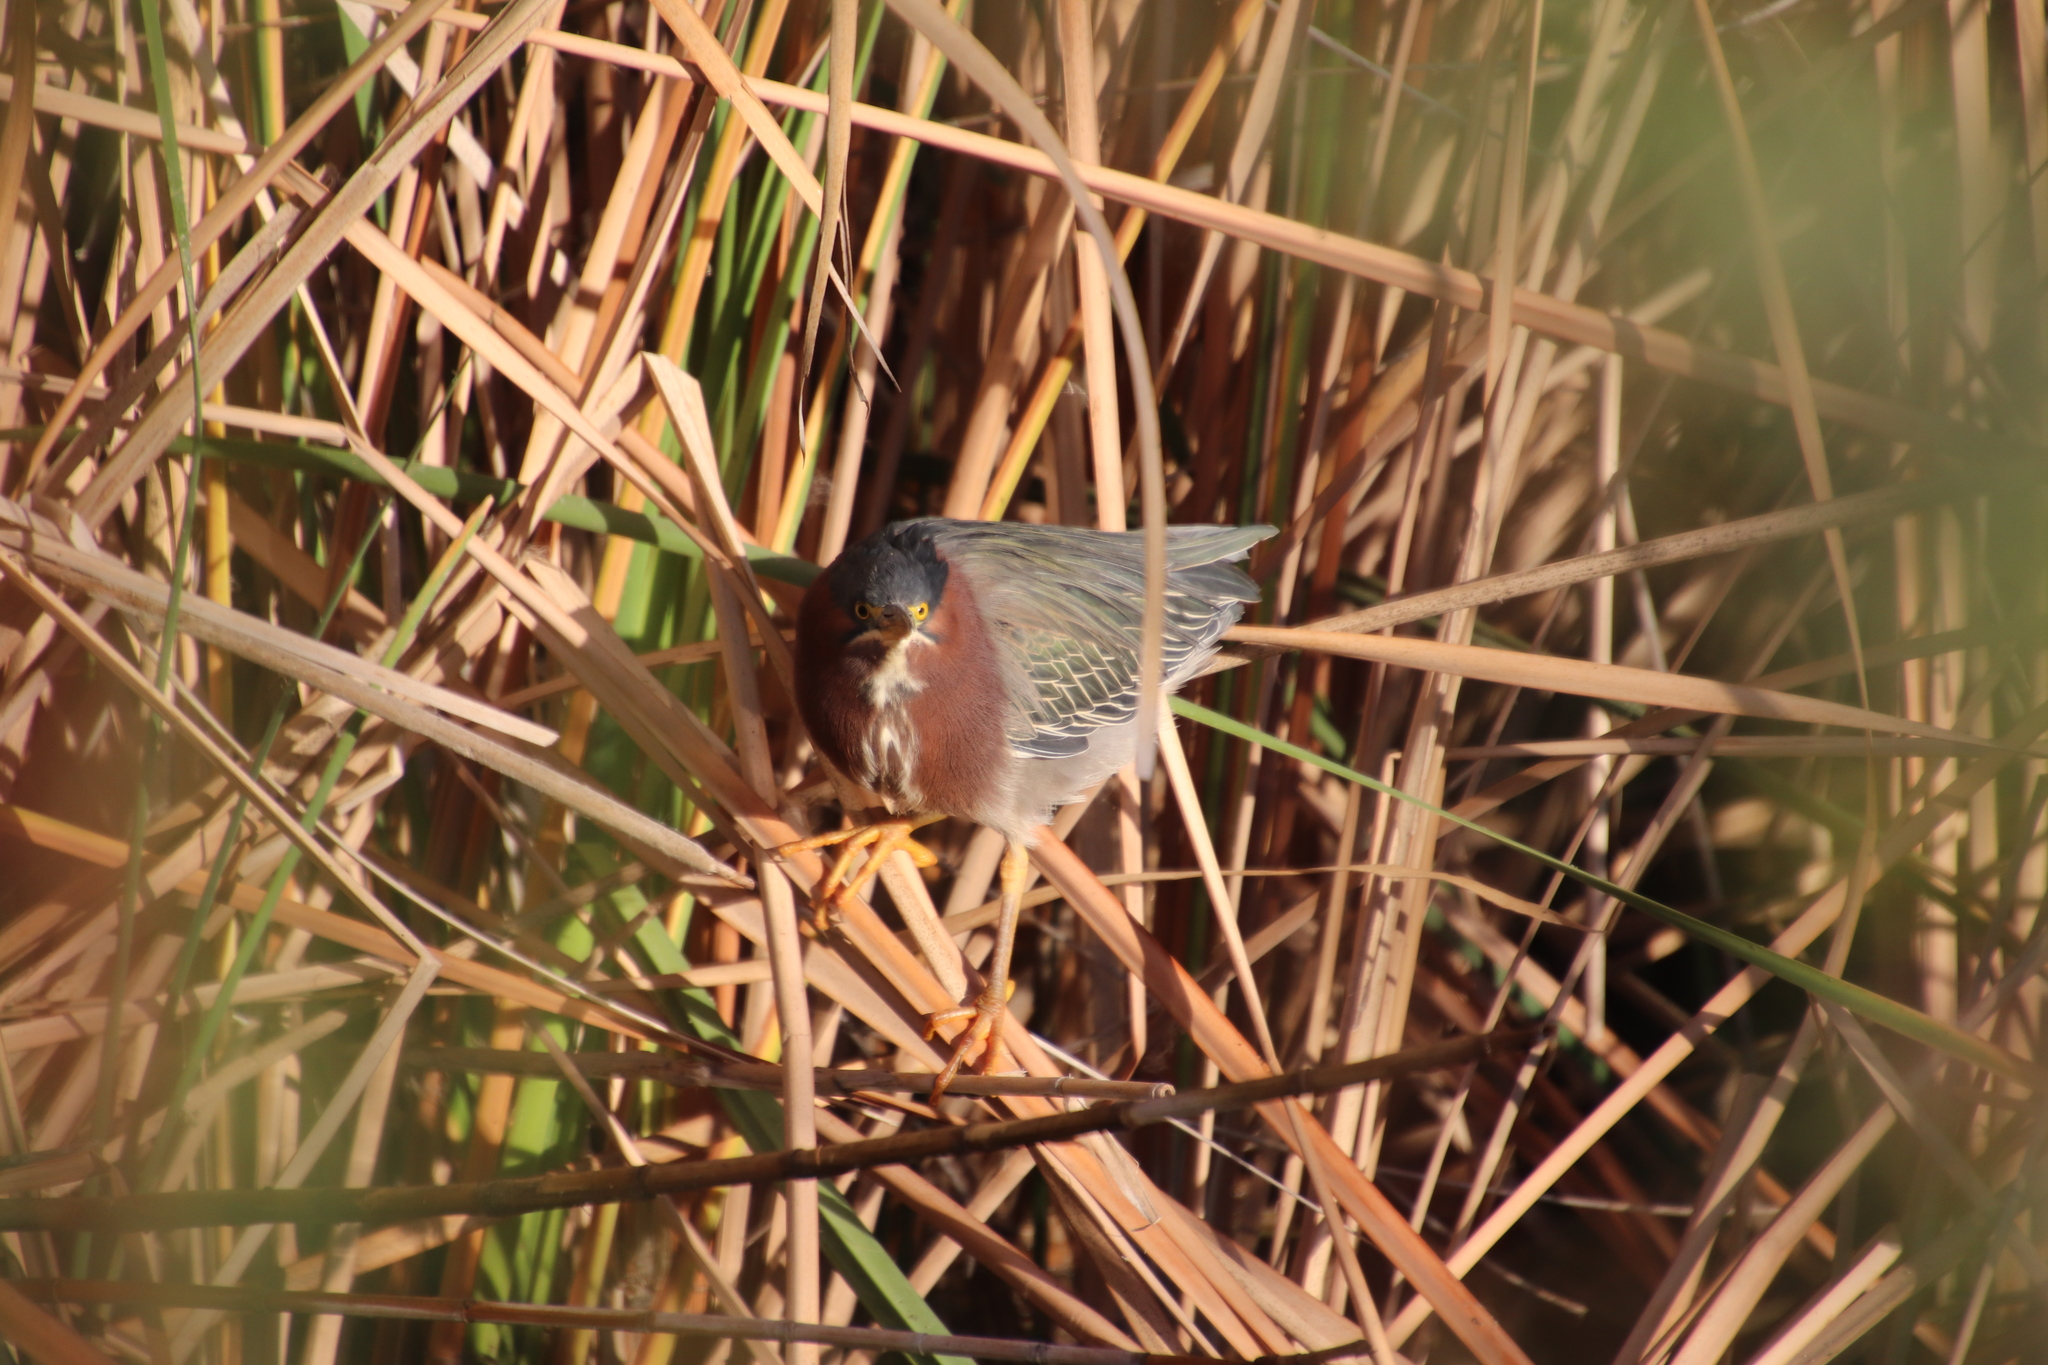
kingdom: Animalia
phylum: Chordata
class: Aves
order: Pelecaniformes
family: Ardeidae
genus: Butorides
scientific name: Butorides virescens
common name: Green heron
